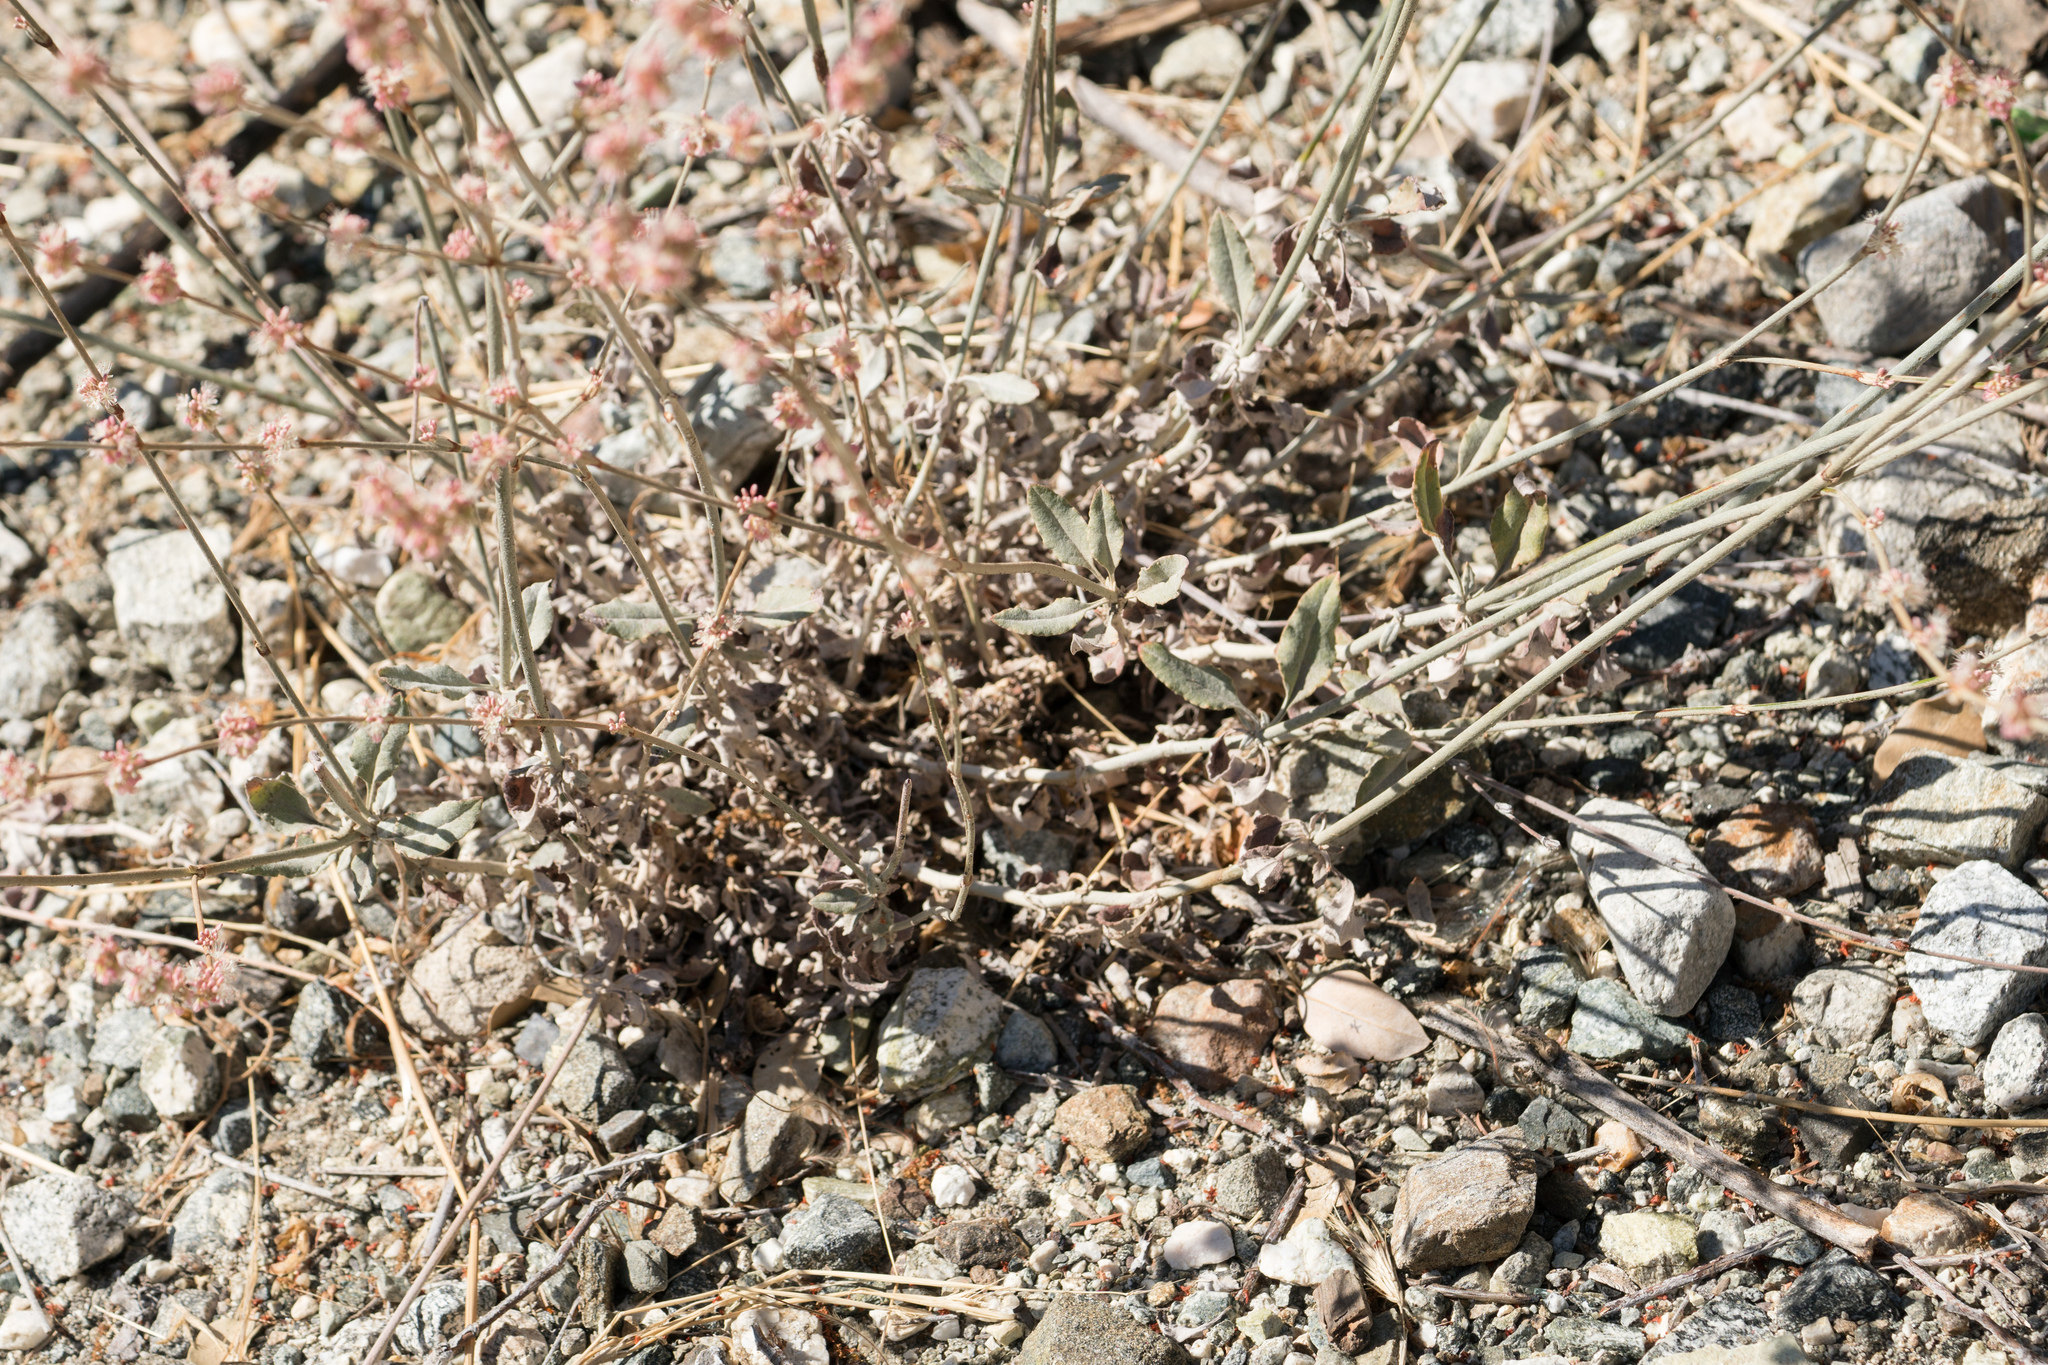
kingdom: Plantae
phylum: Tracheophyta
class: Magnoliopsida
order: Caryophyllales
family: Polygonaceae
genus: Eriogonum
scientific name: Eriogonum elongatum
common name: Long-stem wild buckwheat
